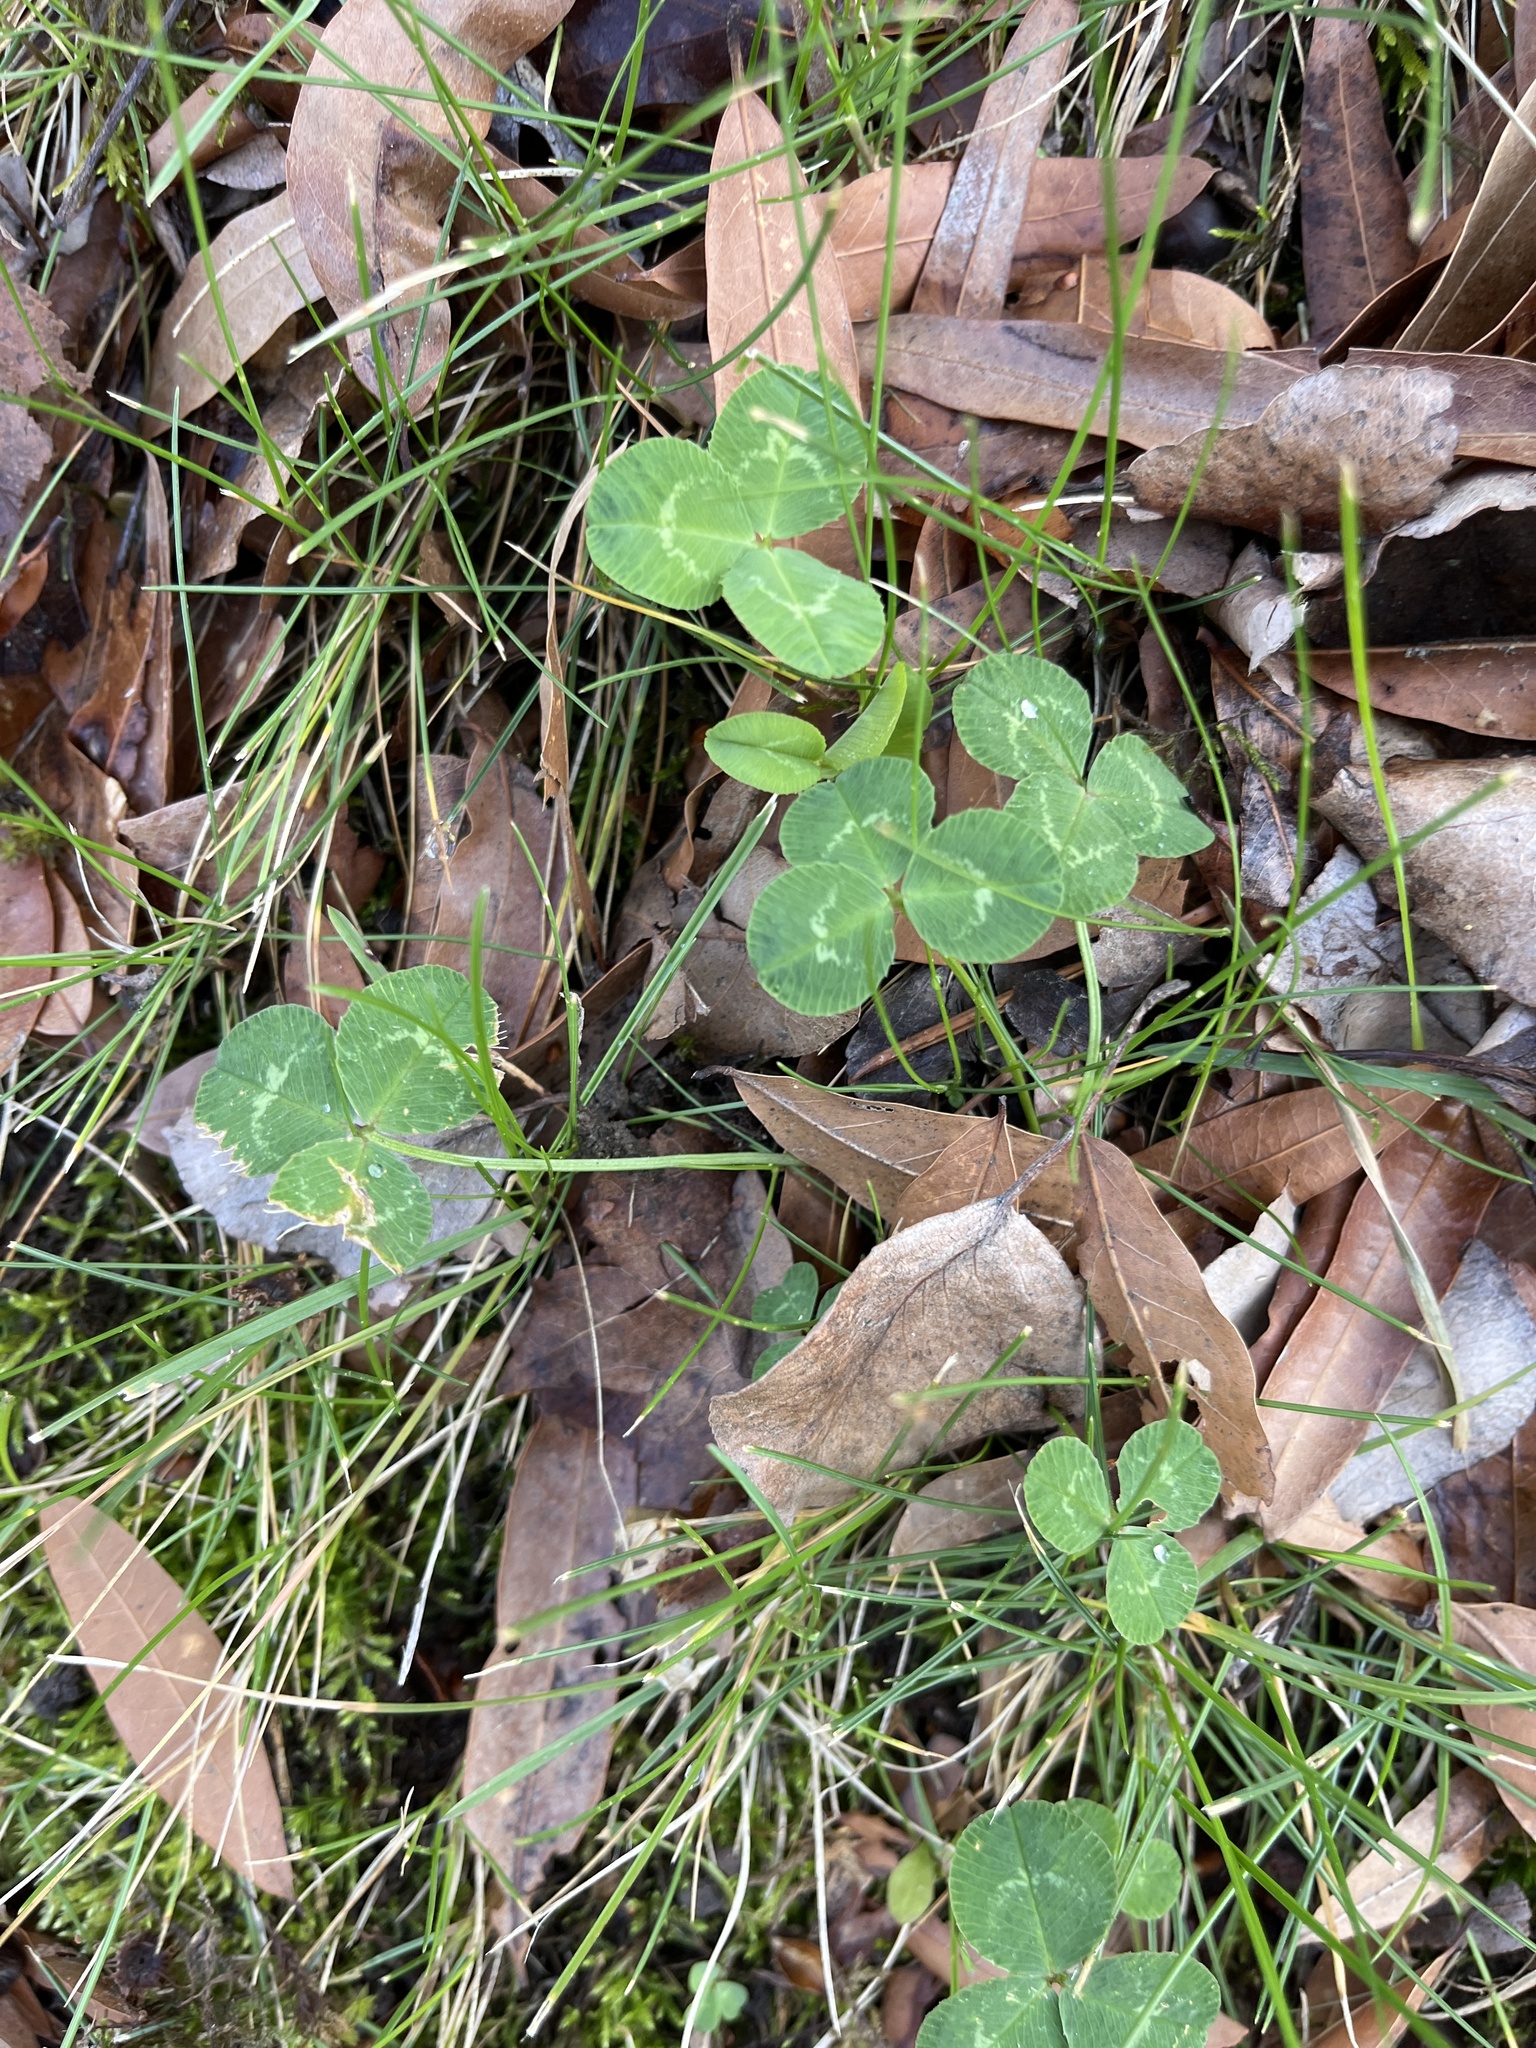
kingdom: Plantae
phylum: Tracheophyta
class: Magnoliopsida
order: Fabales
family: Fabaceae
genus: Trifolium
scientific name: Trifolium repens
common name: White clover
